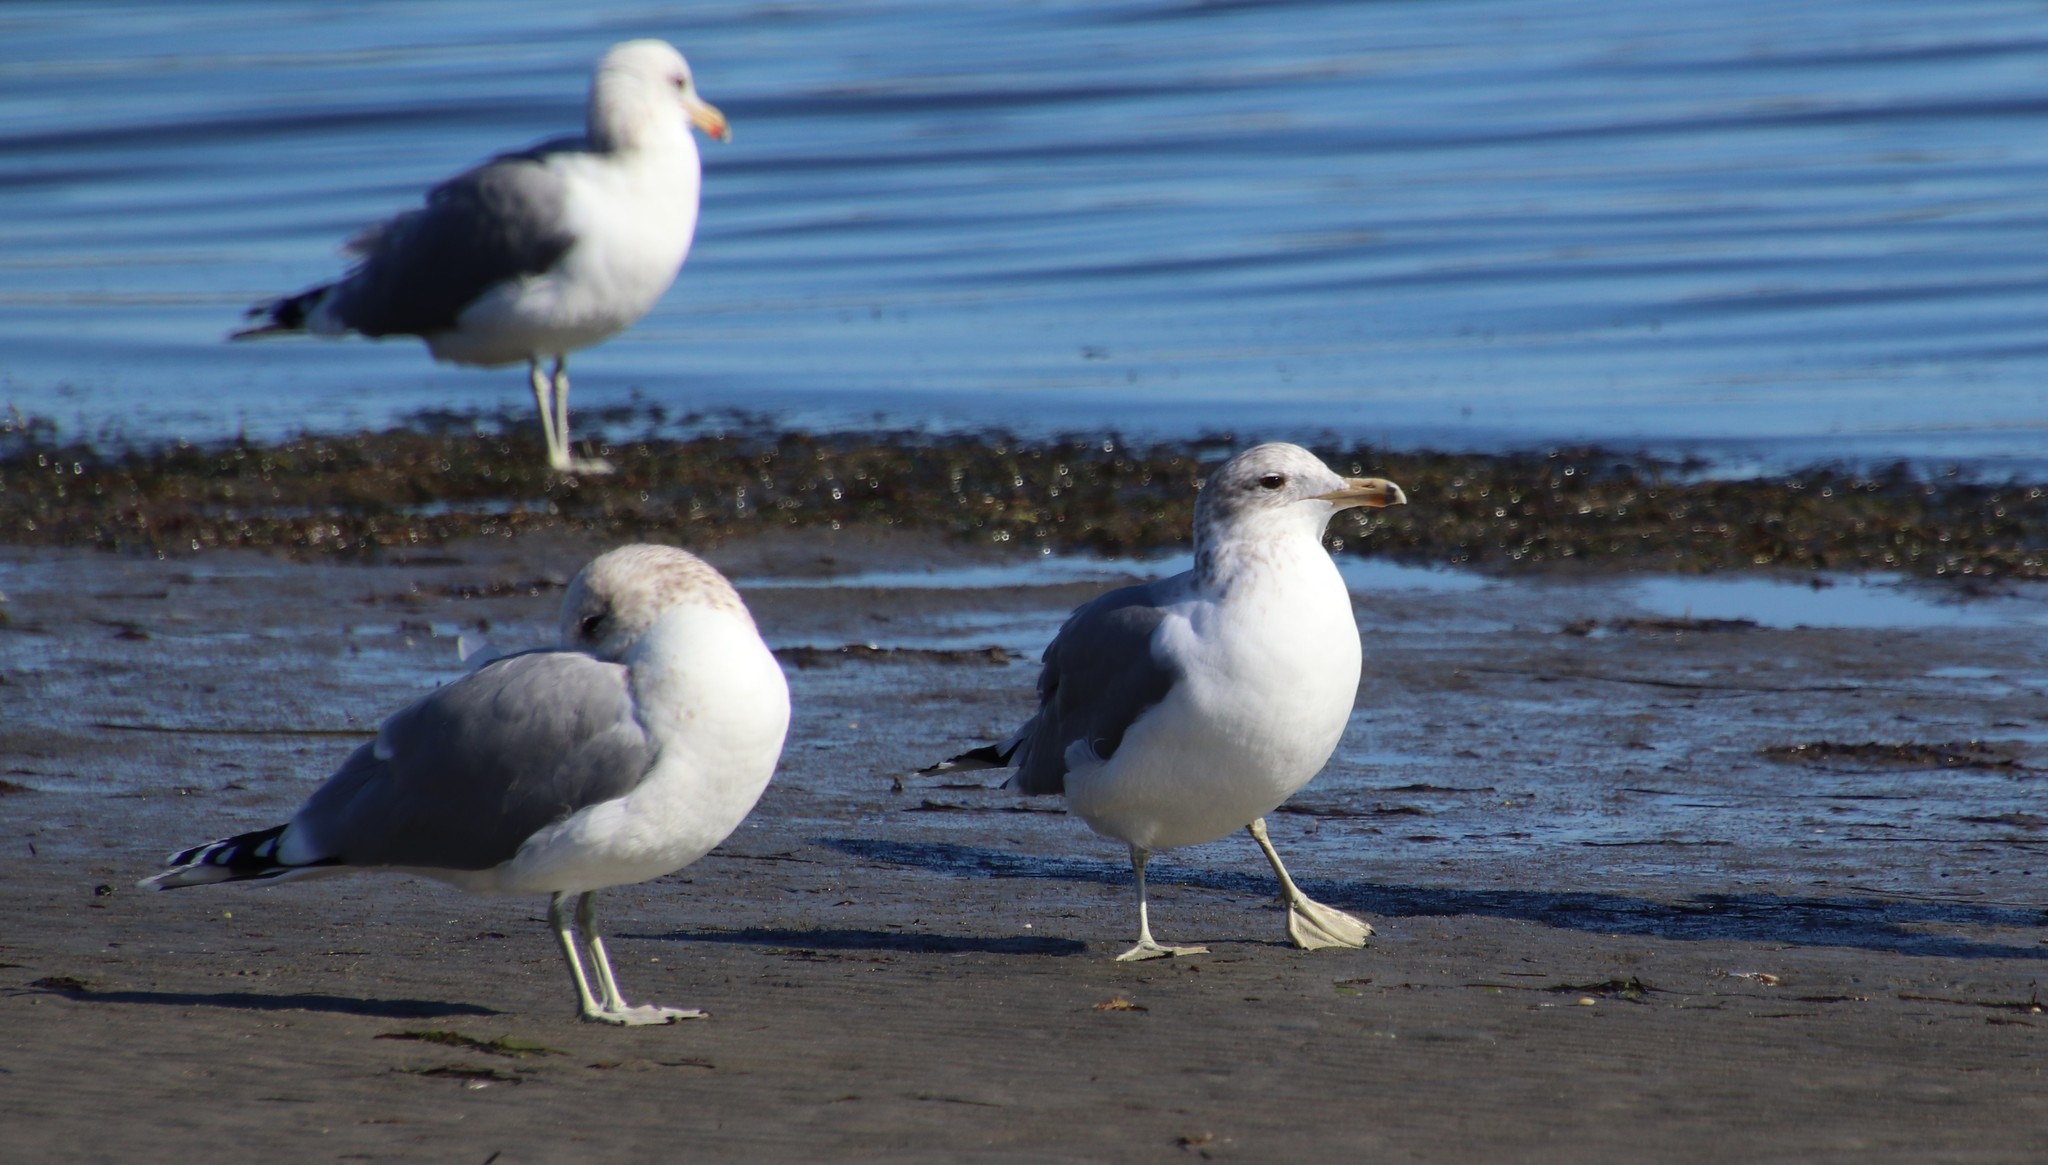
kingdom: Animalia
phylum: Chordata
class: Aves
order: Charadriiformes
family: Laridae
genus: Larus
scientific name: Larus californicus
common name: California gull
